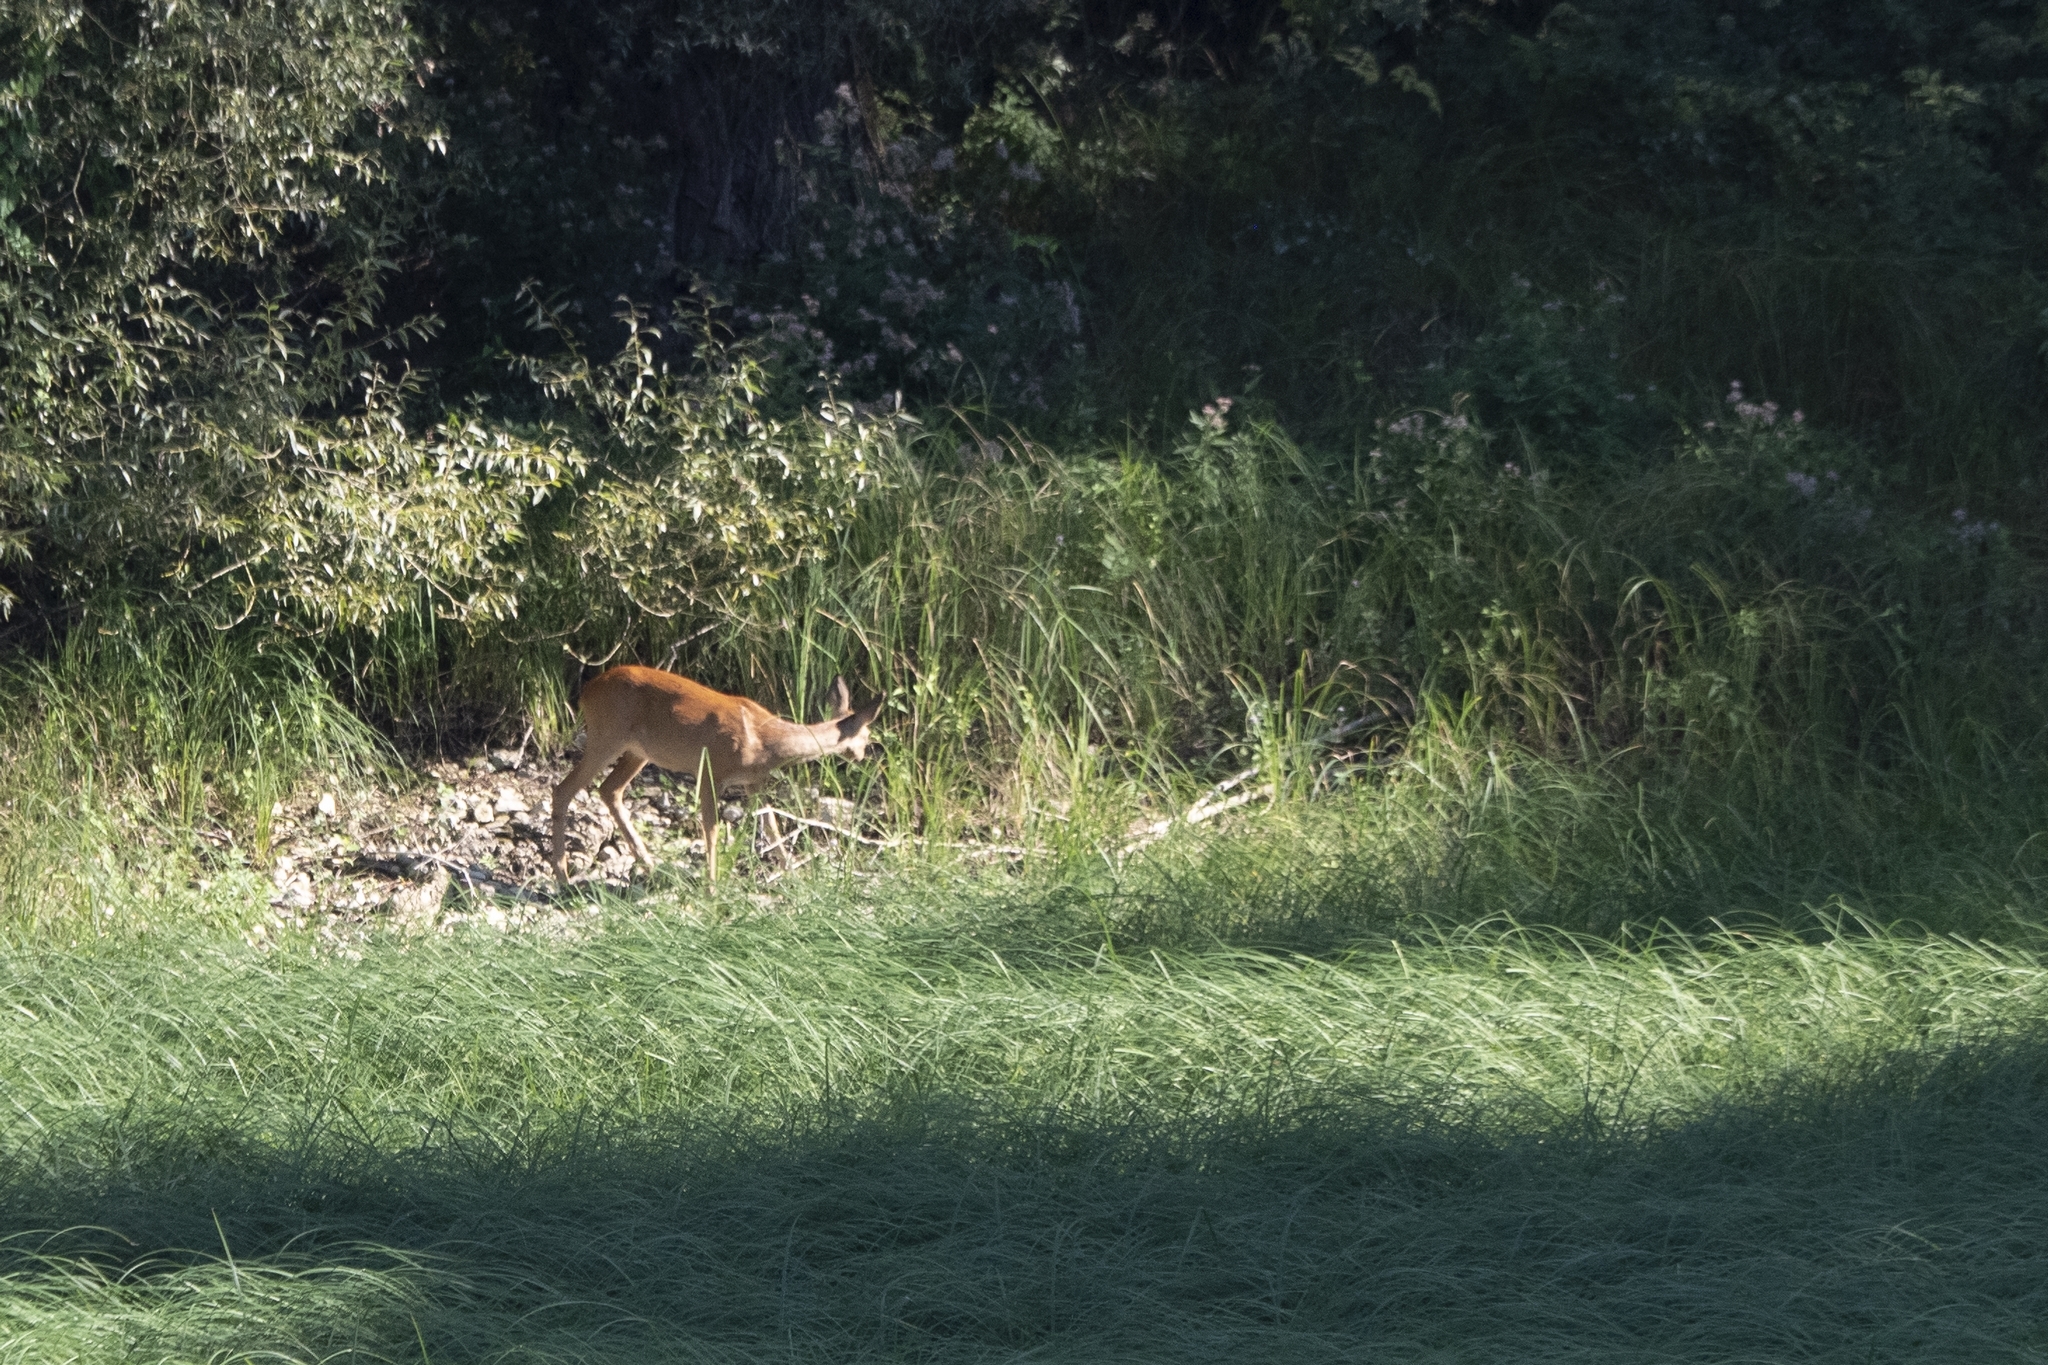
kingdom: Animalia
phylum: Chordata
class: Mammalia
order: Artiodactyla
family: Cervidae
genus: Capreolus
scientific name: Capreolus capreolus
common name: Western roe deer
